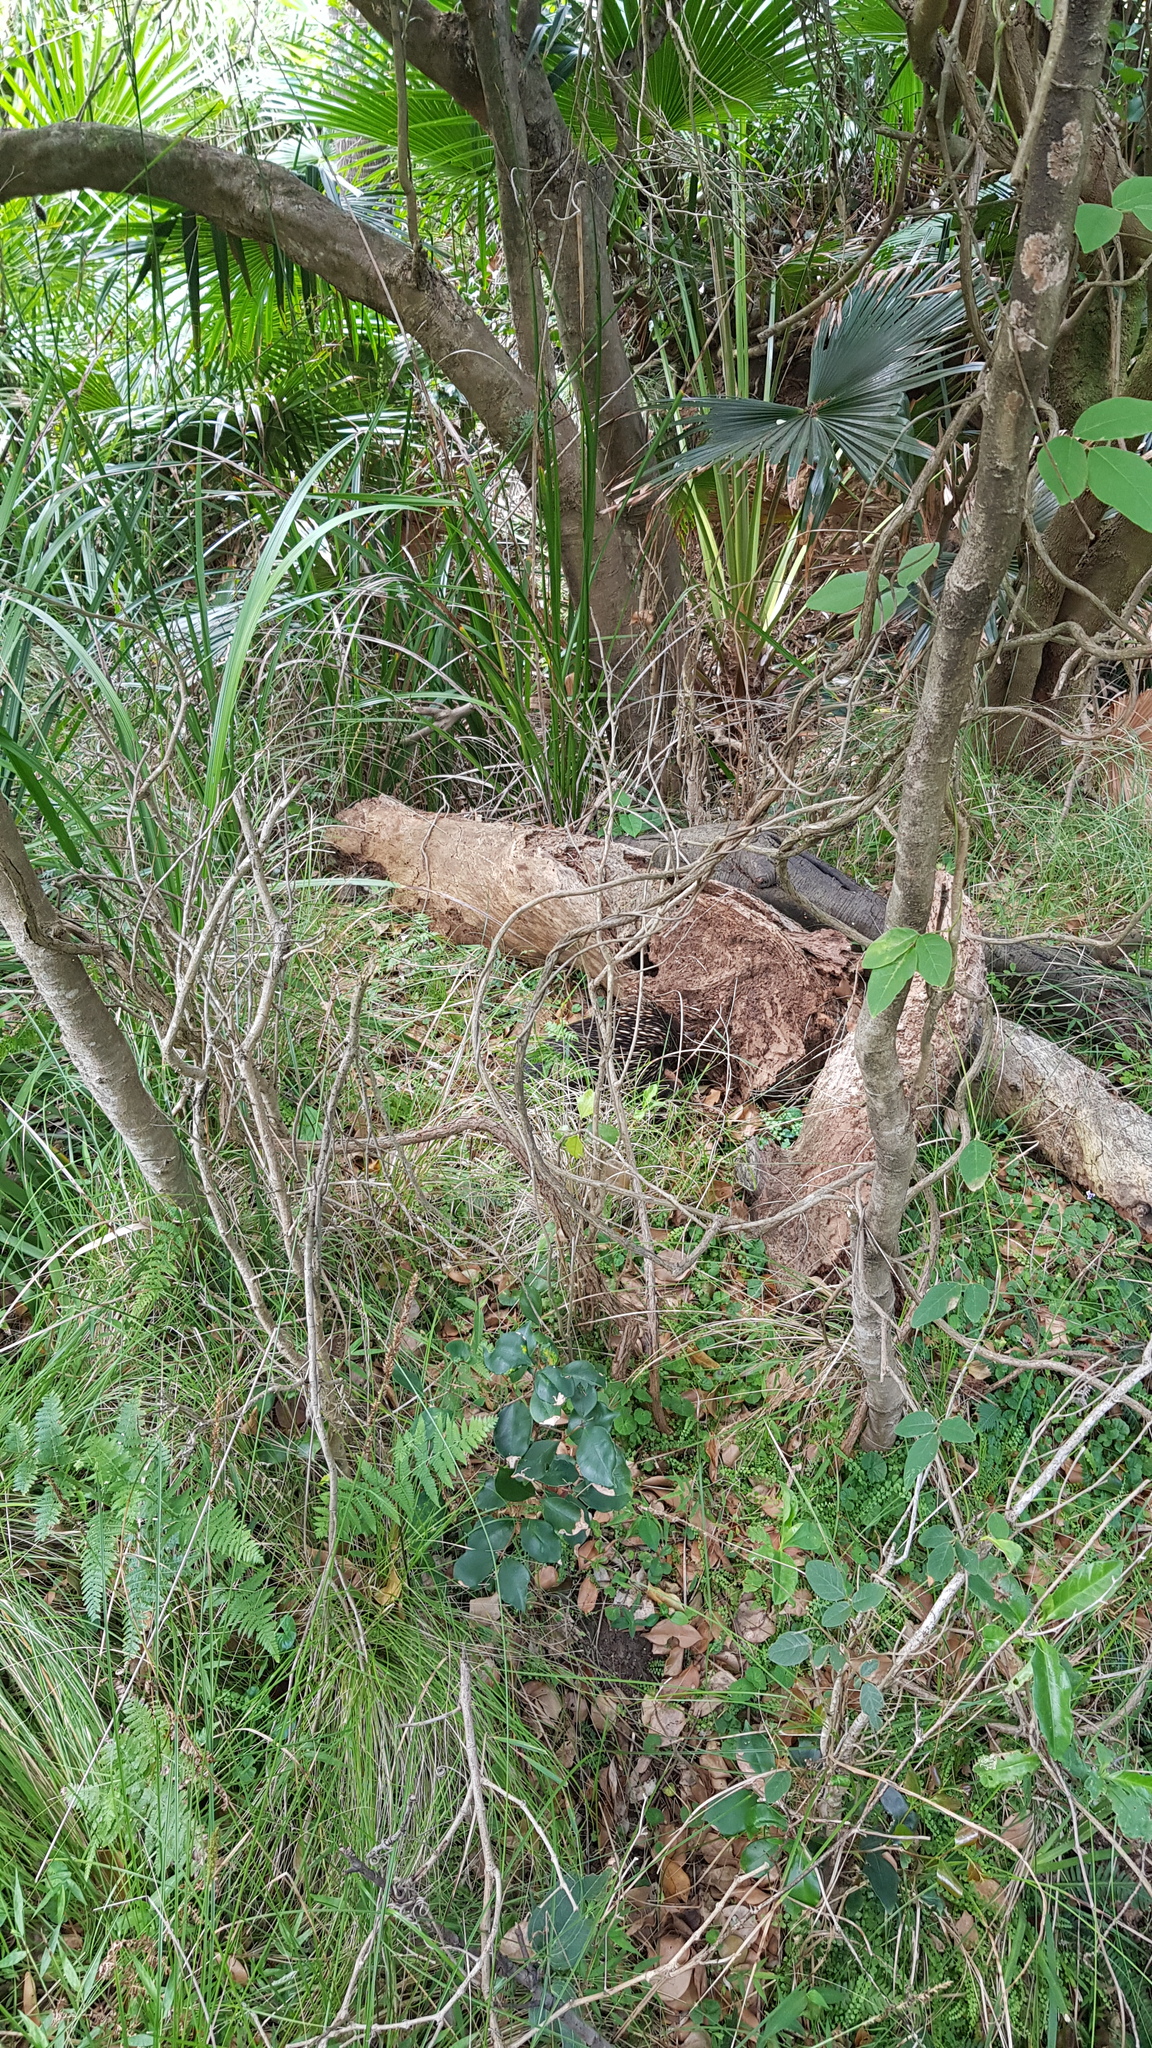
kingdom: Animalia
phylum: Chordata
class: Mammalia
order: Monotremata
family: Tachyglossidae
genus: Tachyglossus
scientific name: Tachyglossus aculeatus
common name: Short-beaked echidna
